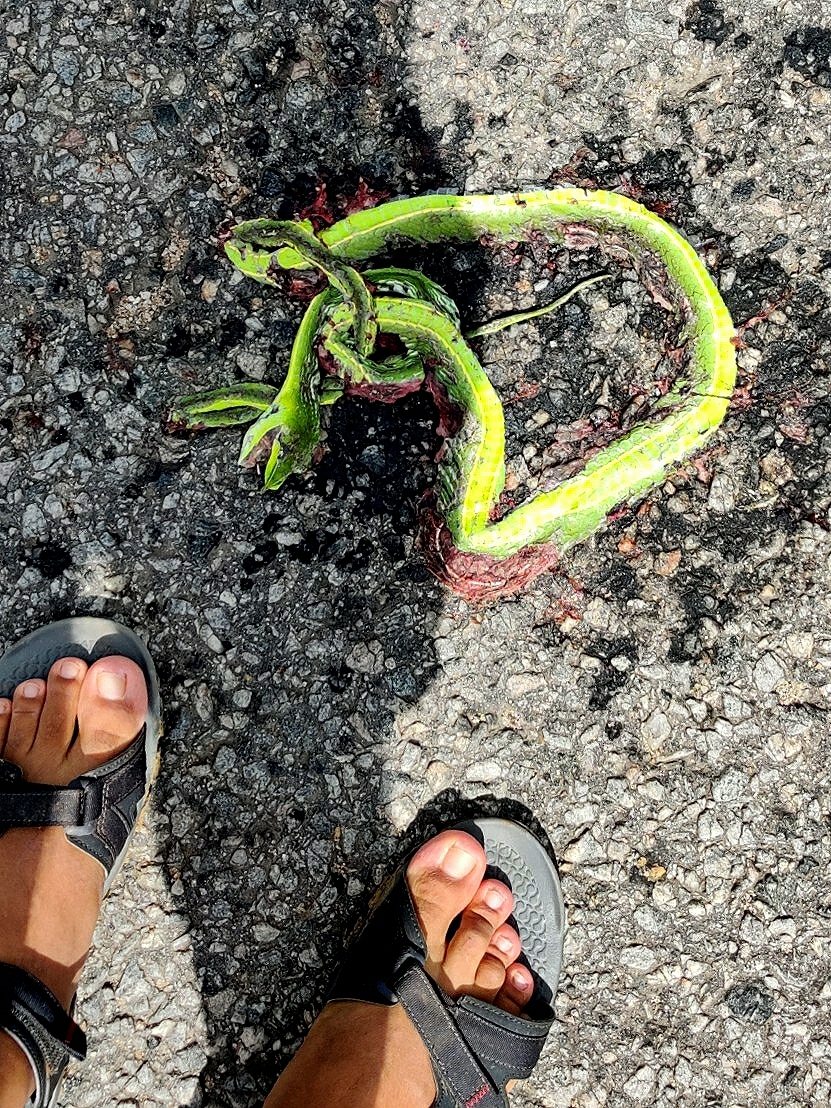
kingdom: Animalia
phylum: Chordata
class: Squamata
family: Colubridae
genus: Ahaetulla
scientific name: Ahaetulla oxyrhyncha
